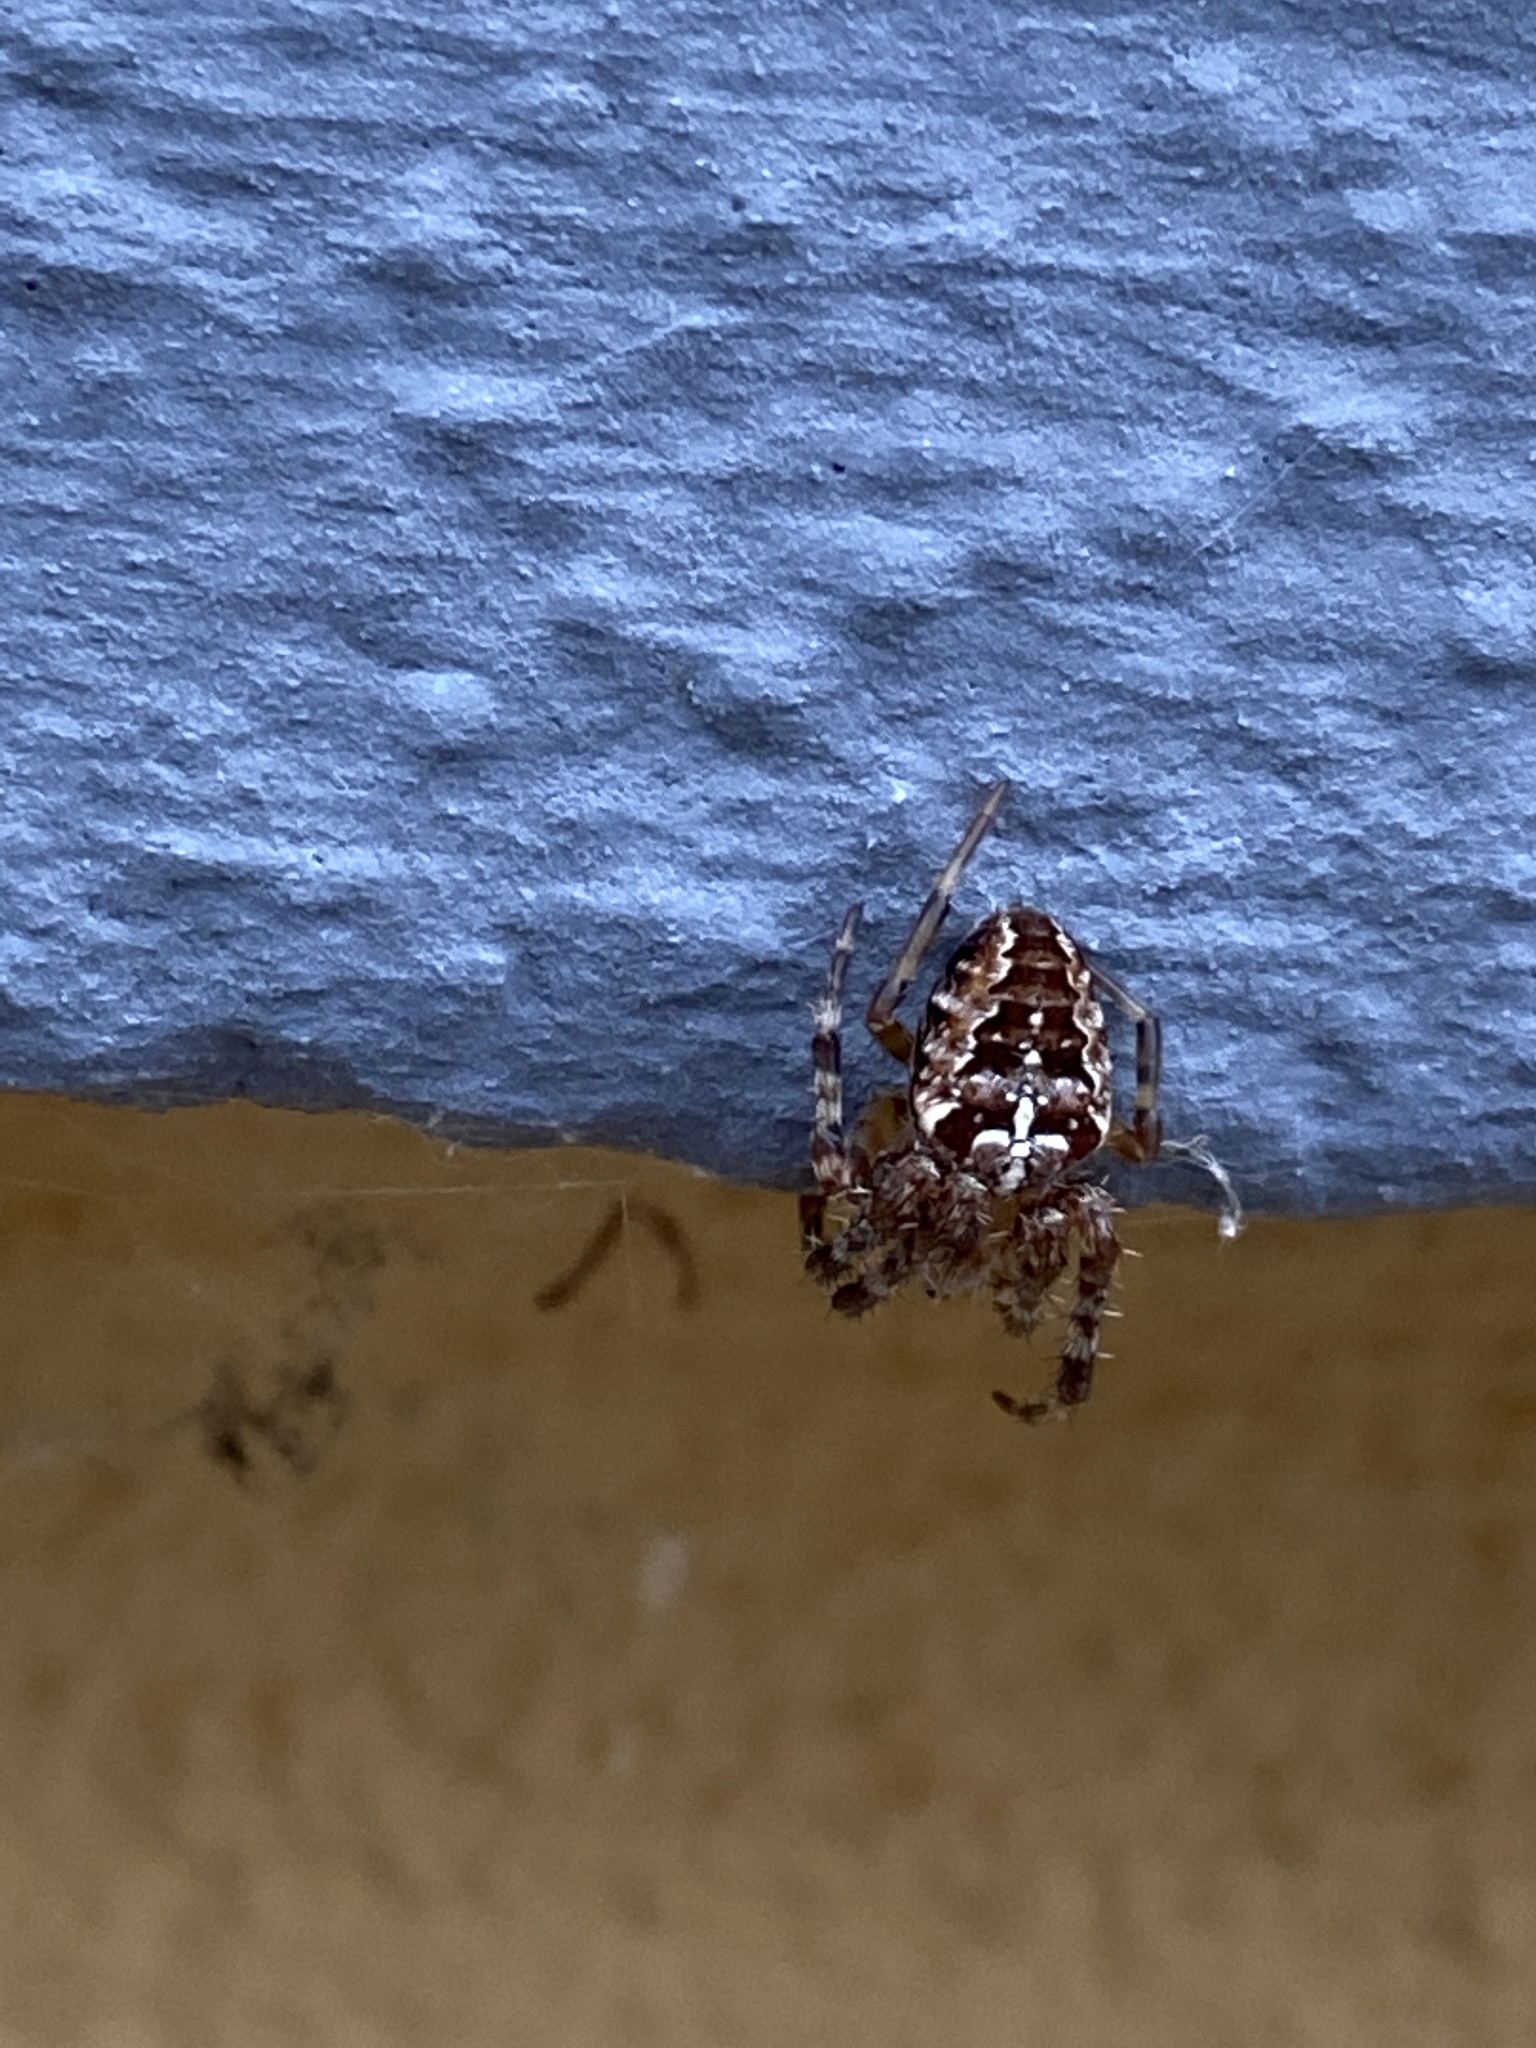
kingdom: Animalia
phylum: Arthropoda
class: Arachnida
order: Araneae
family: Araneidae
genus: Araneus
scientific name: Araneus diadematus
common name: Cross orbweaver
